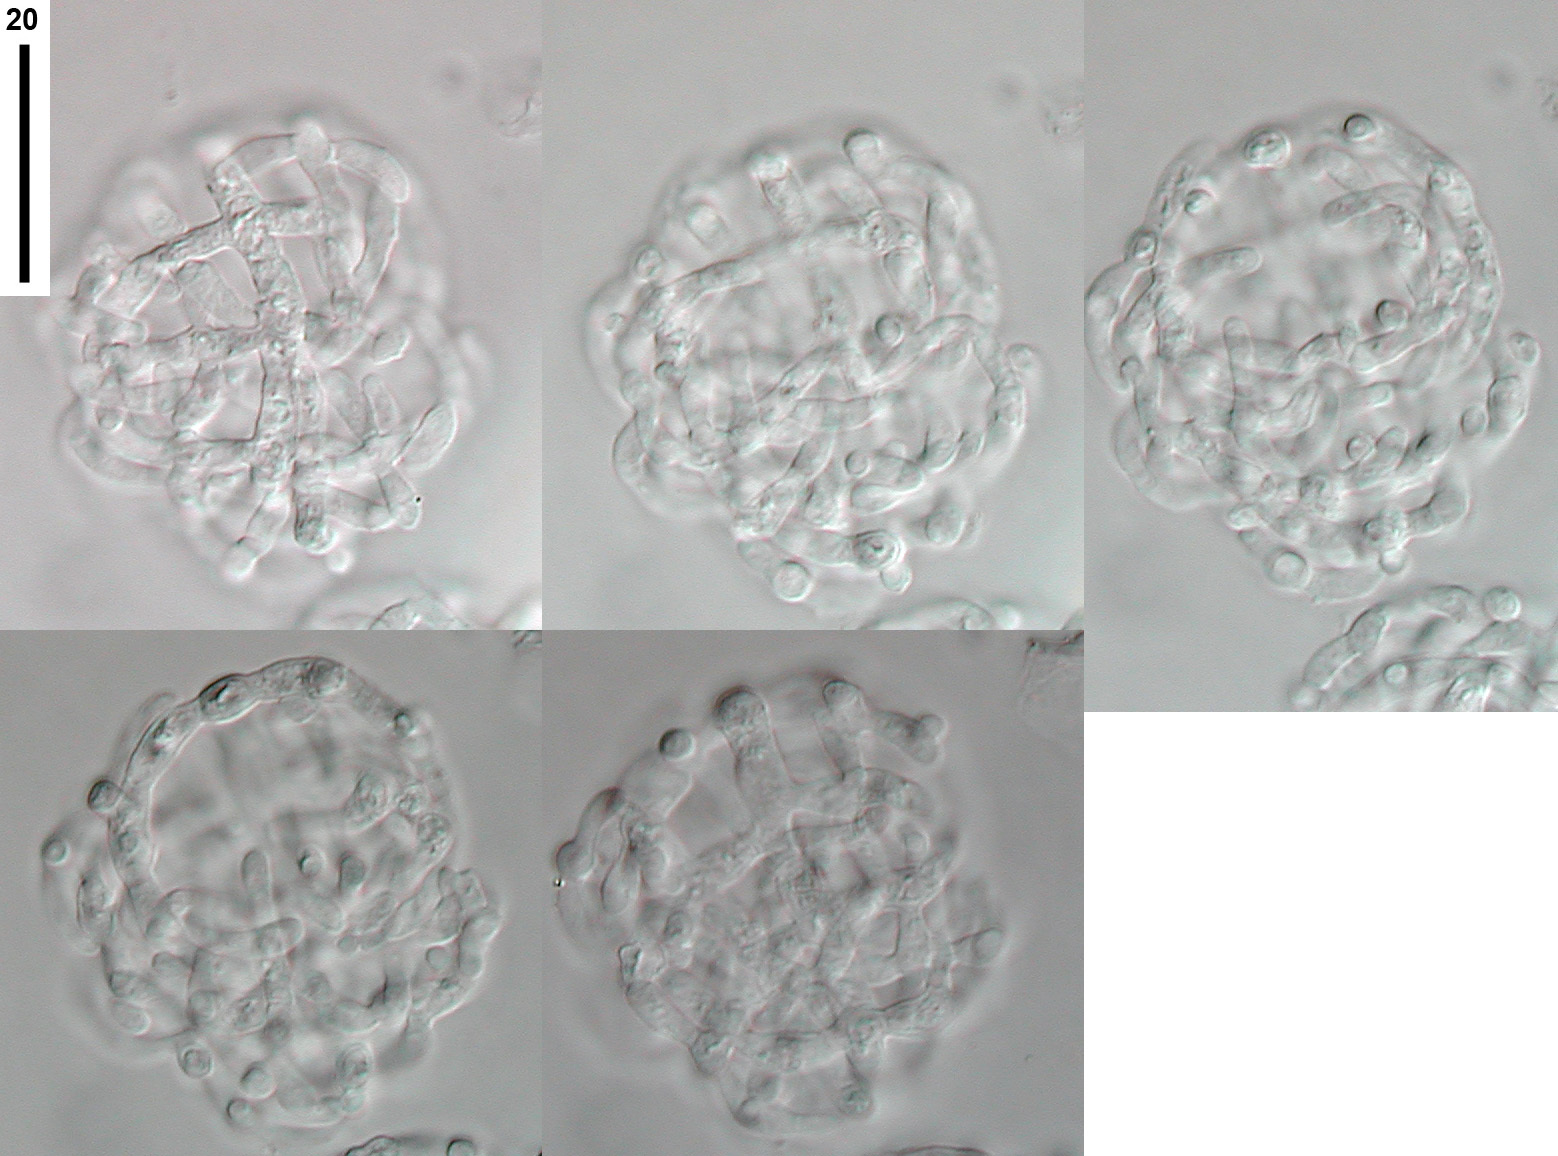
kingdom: Fungi
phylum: Ascomycota
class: Leotiomycetes
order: Helotiales
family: Tricladiaceae
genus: Spirosphaera
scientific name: Spirosphaera minuta
